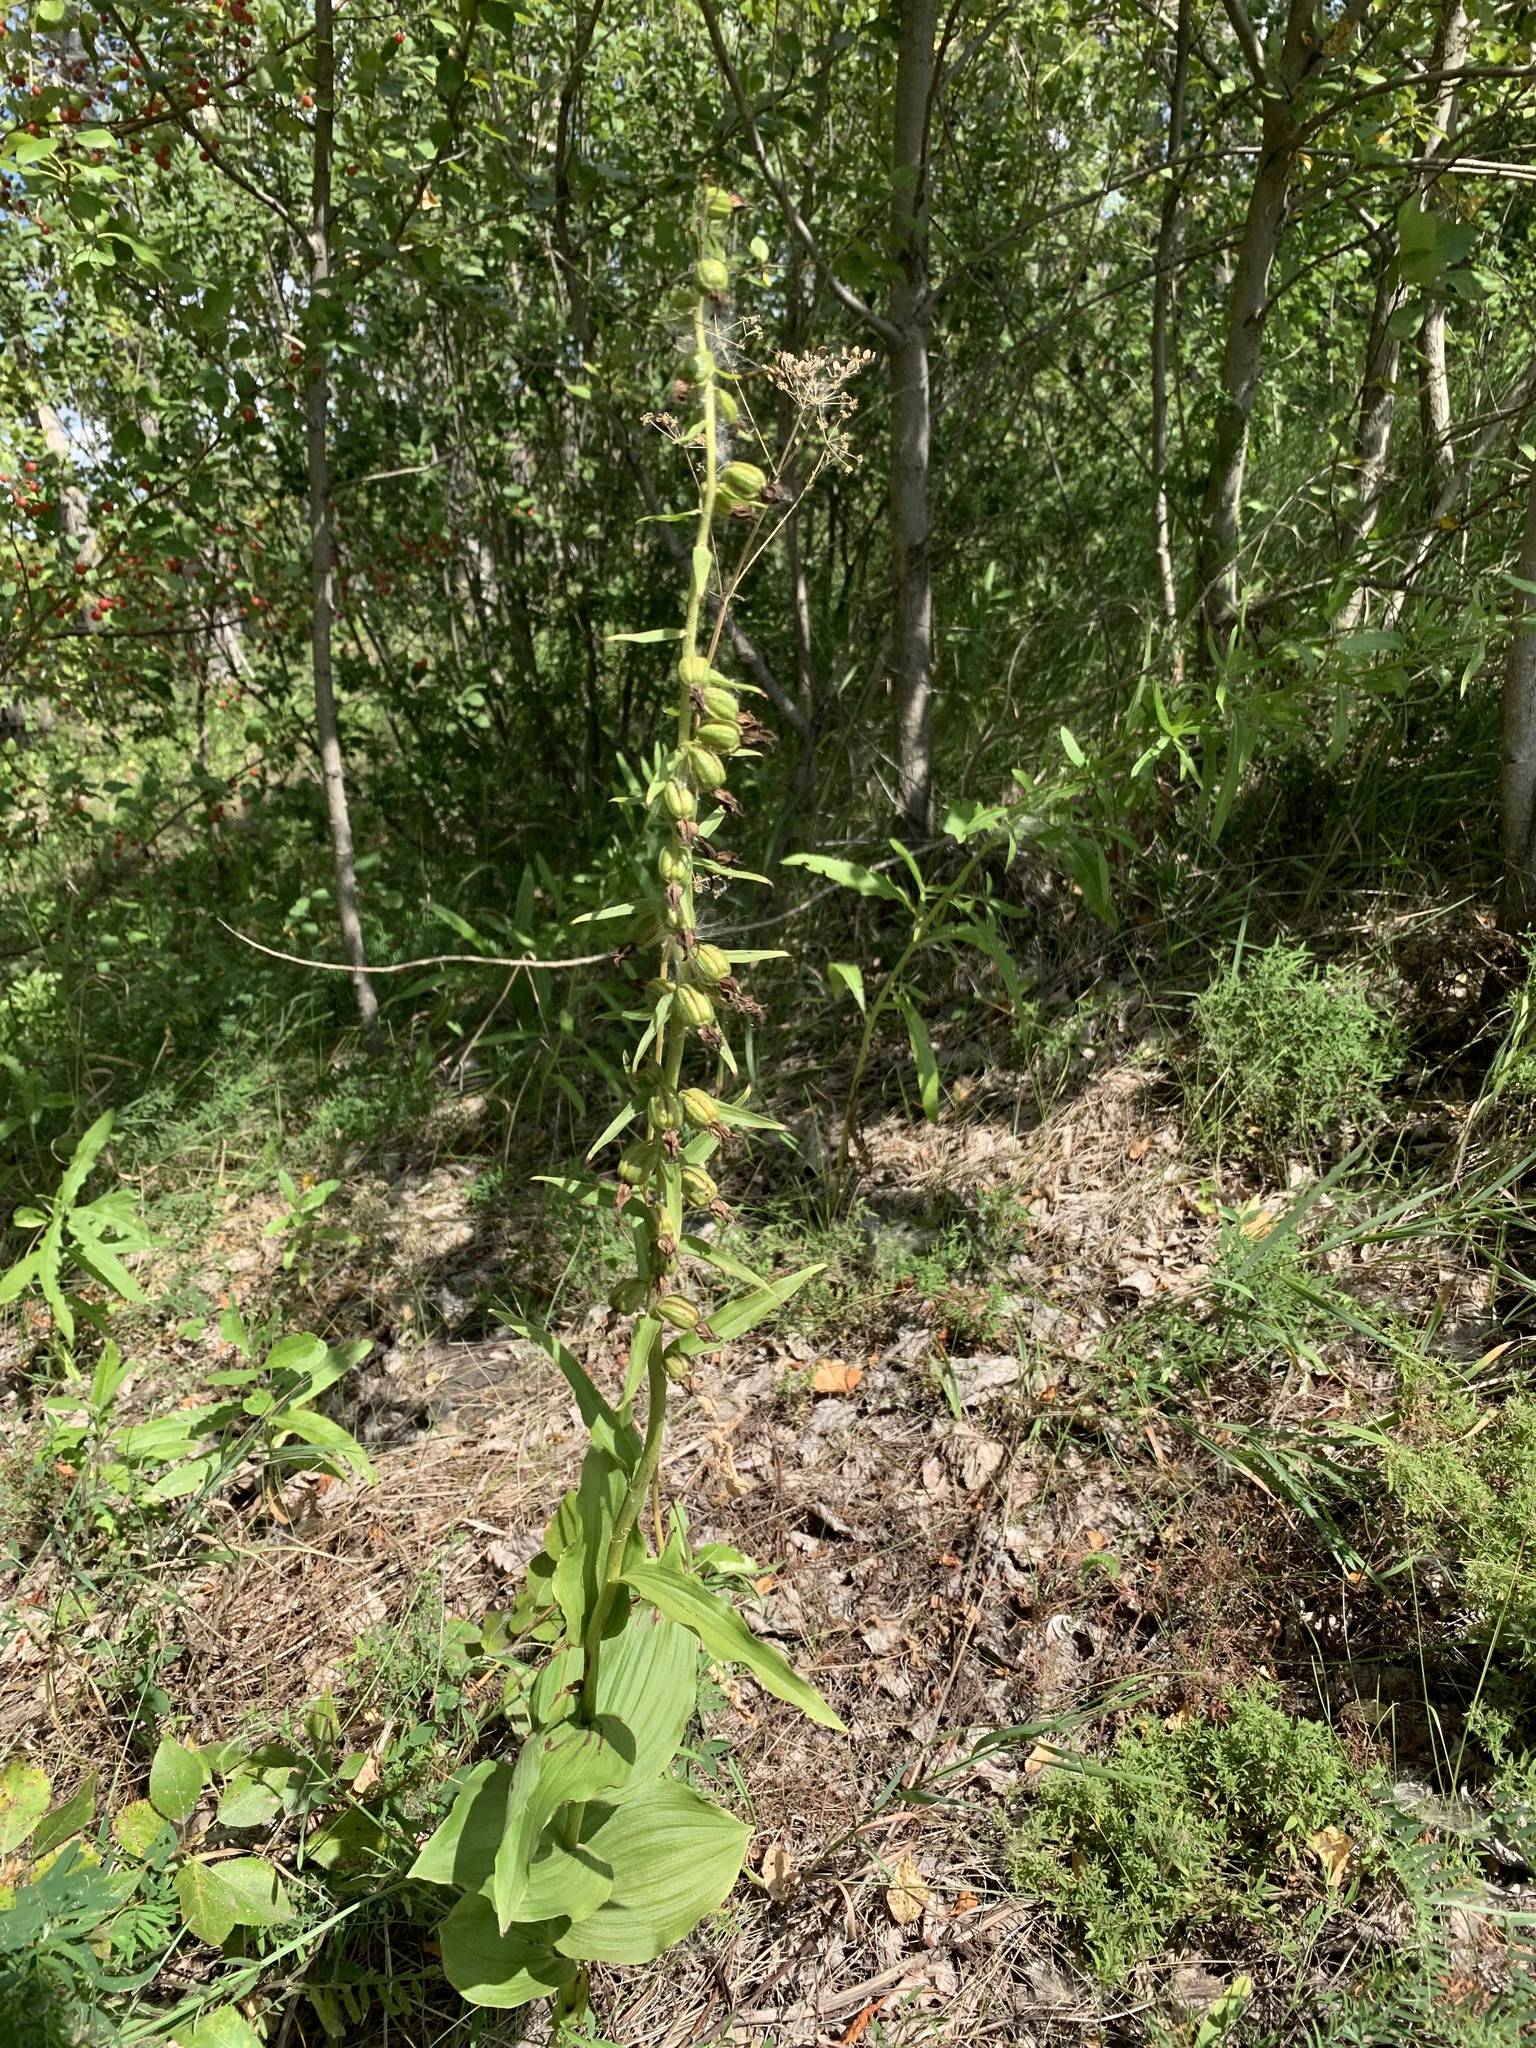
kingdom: Plantae
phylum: Tracheophyta
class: Liliopsida
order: Asparagales
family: Orchidaceae
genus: Epipactis
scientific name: Epipactis helleborine
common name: Broad-leaved helleborine
